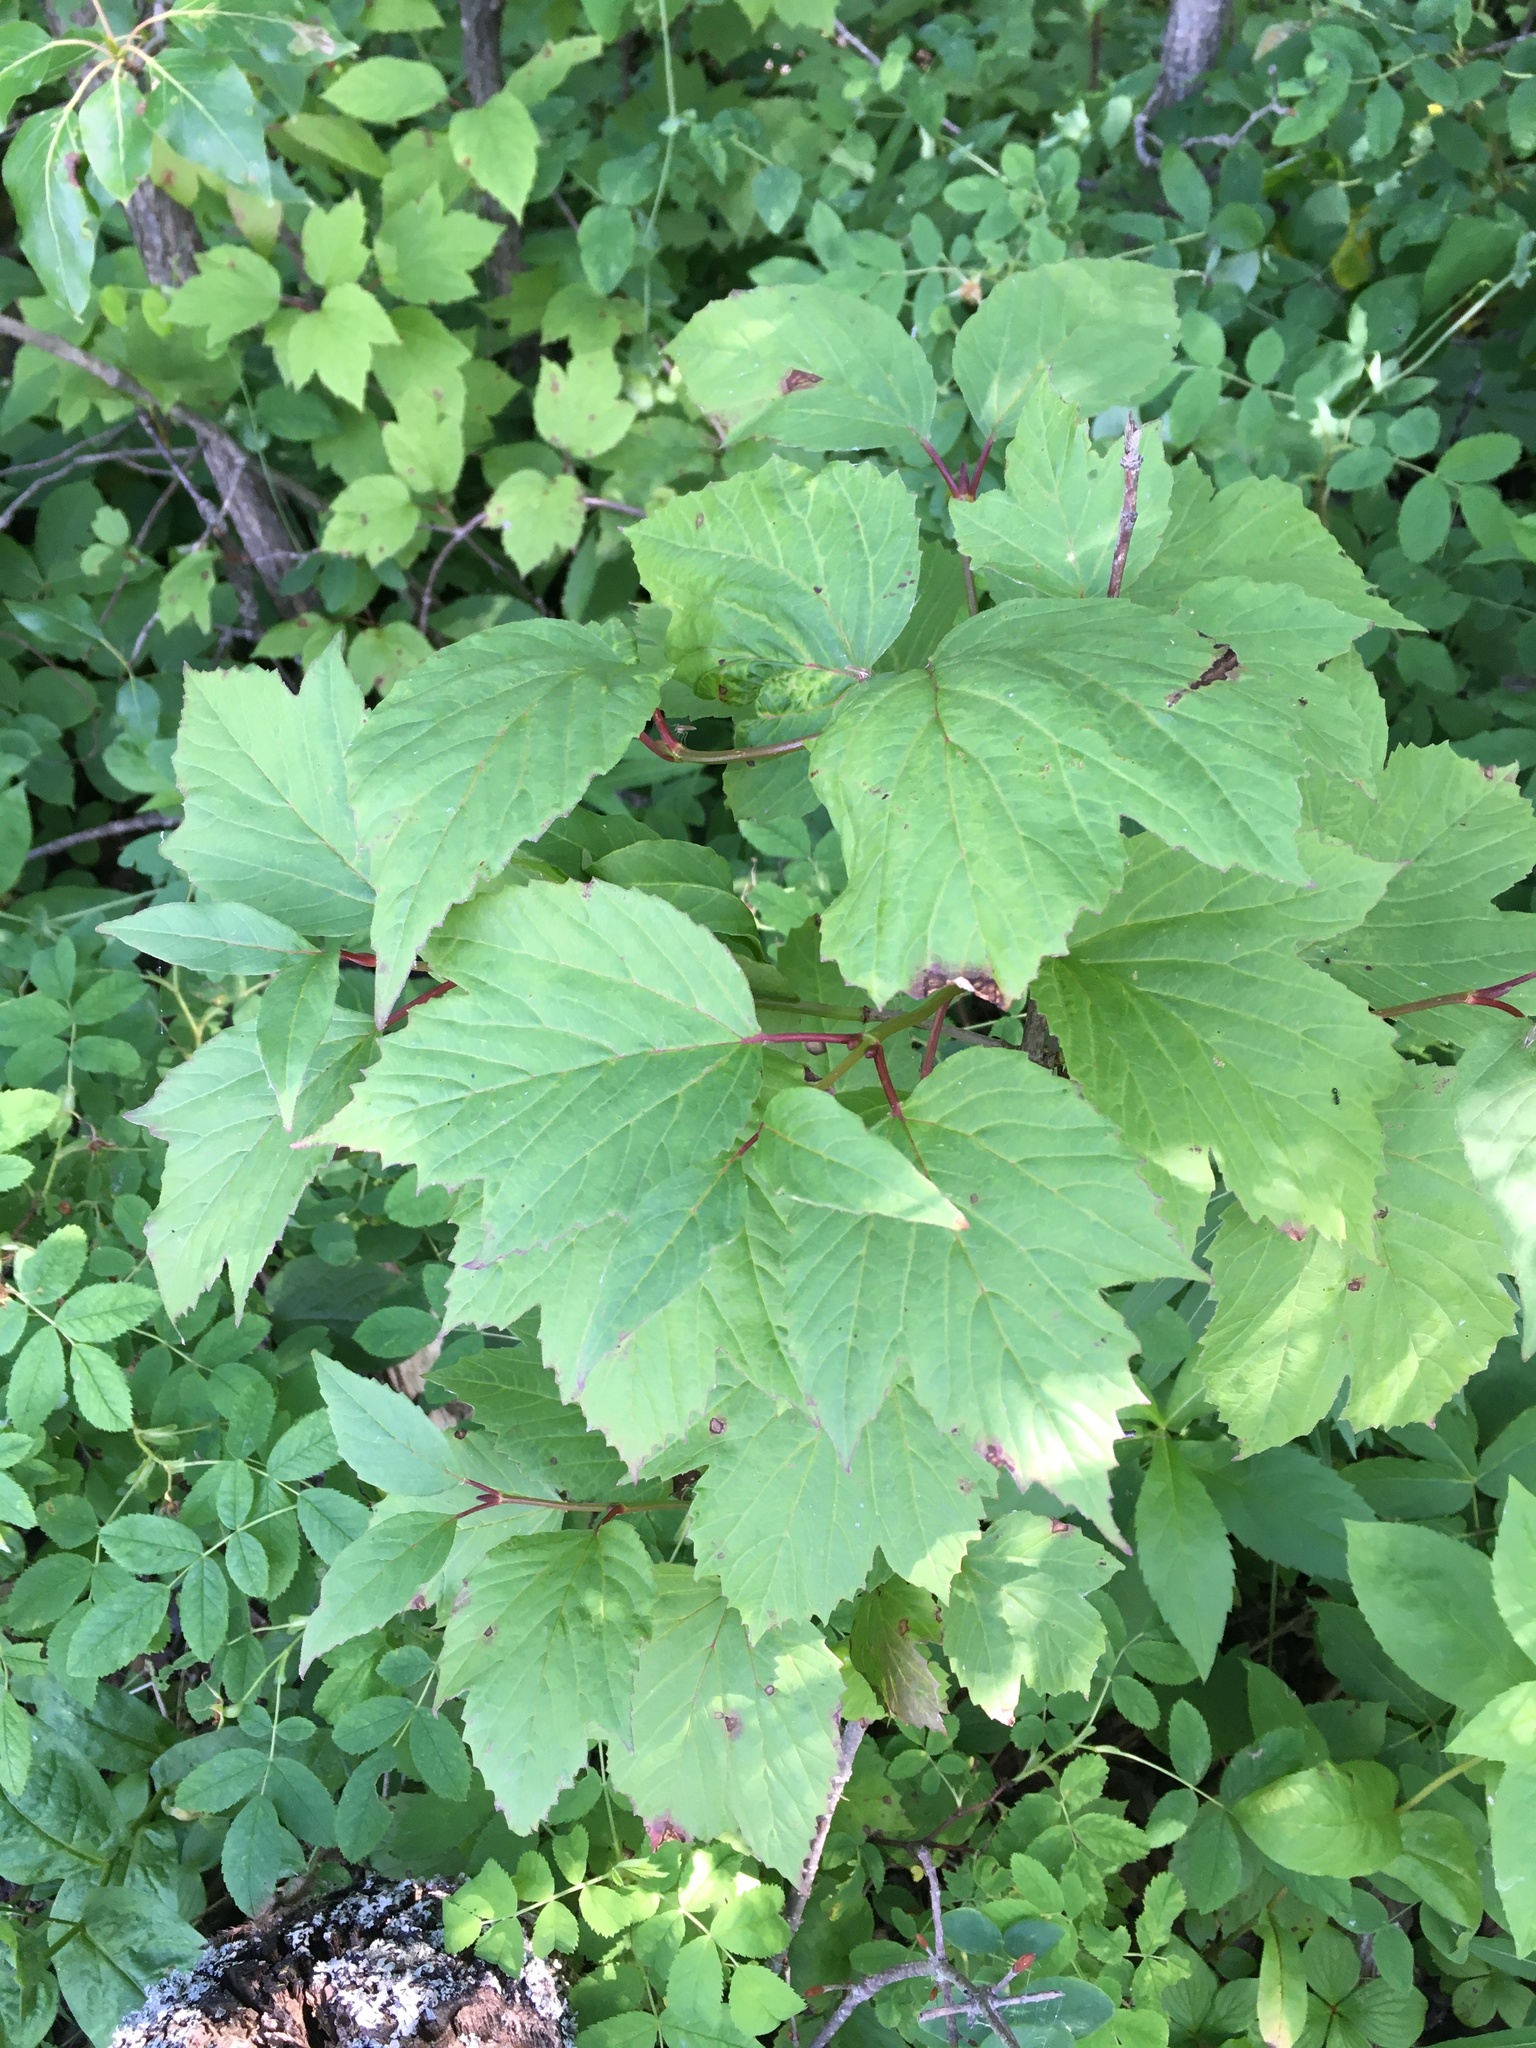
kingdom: Plantae
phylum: Tracheophyta
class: Magnoliopsida
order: Dipsacales
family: Viburnaceae
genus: Viburnum
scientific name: Viburnum edule
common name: Mooseberry
